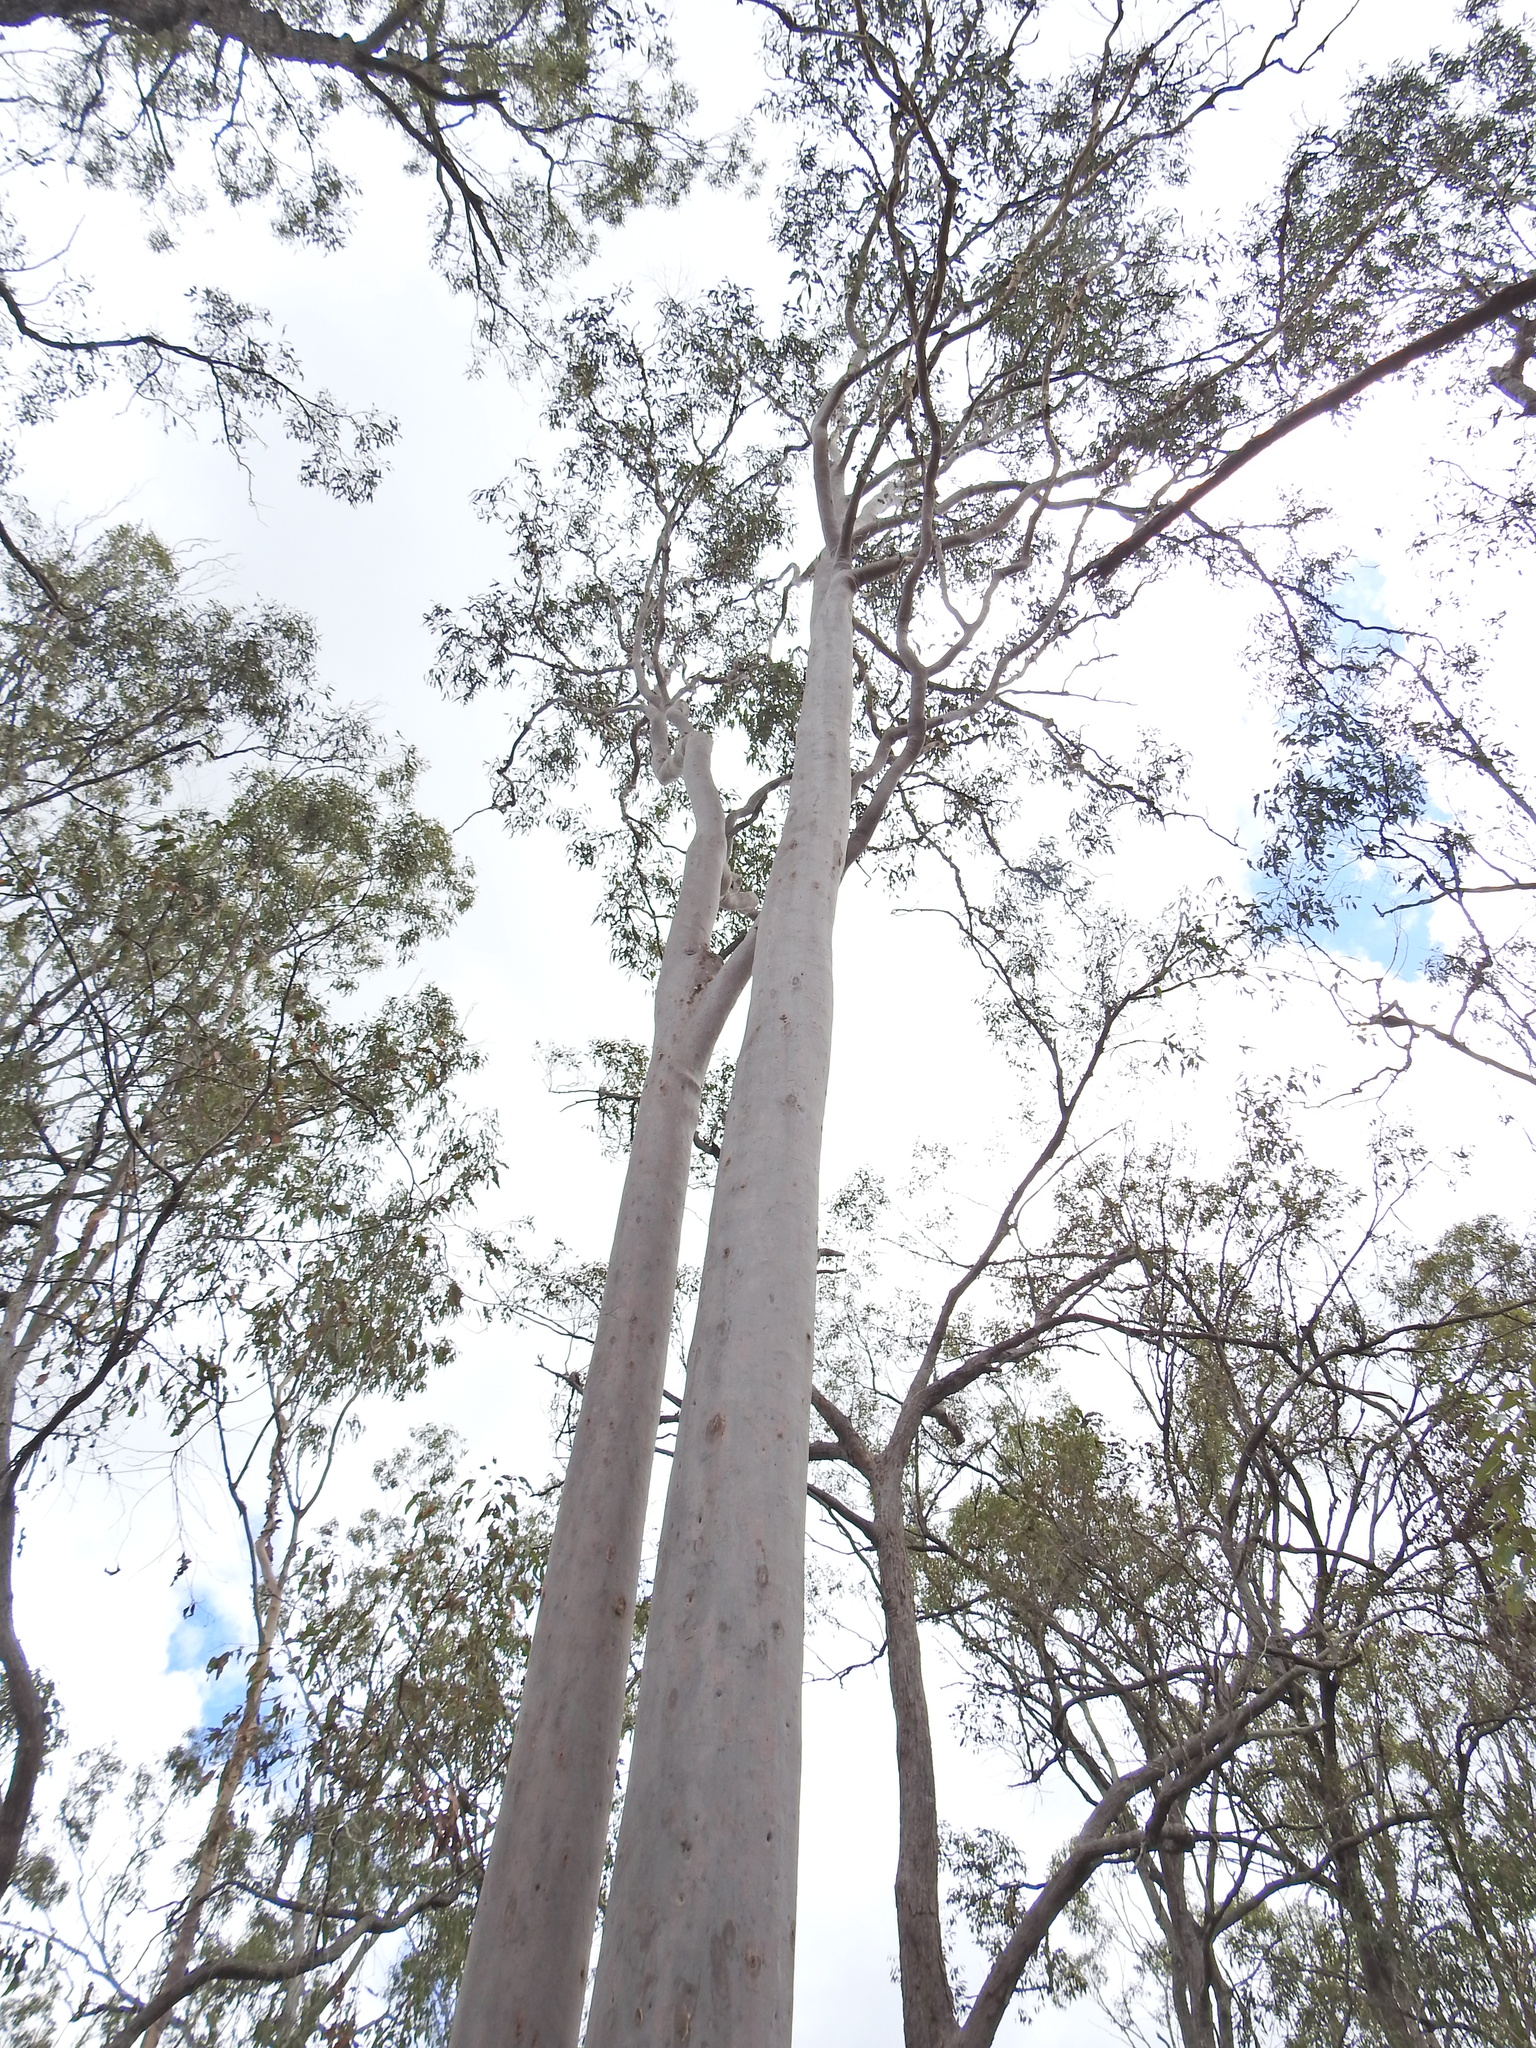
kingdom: Plantae
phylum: Tracheophyta
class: Magnoliopsida
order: Myrtales
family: Myrtaceae
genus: Corymbia
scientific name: Corymbia citriodora
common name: Lemonscented gum
